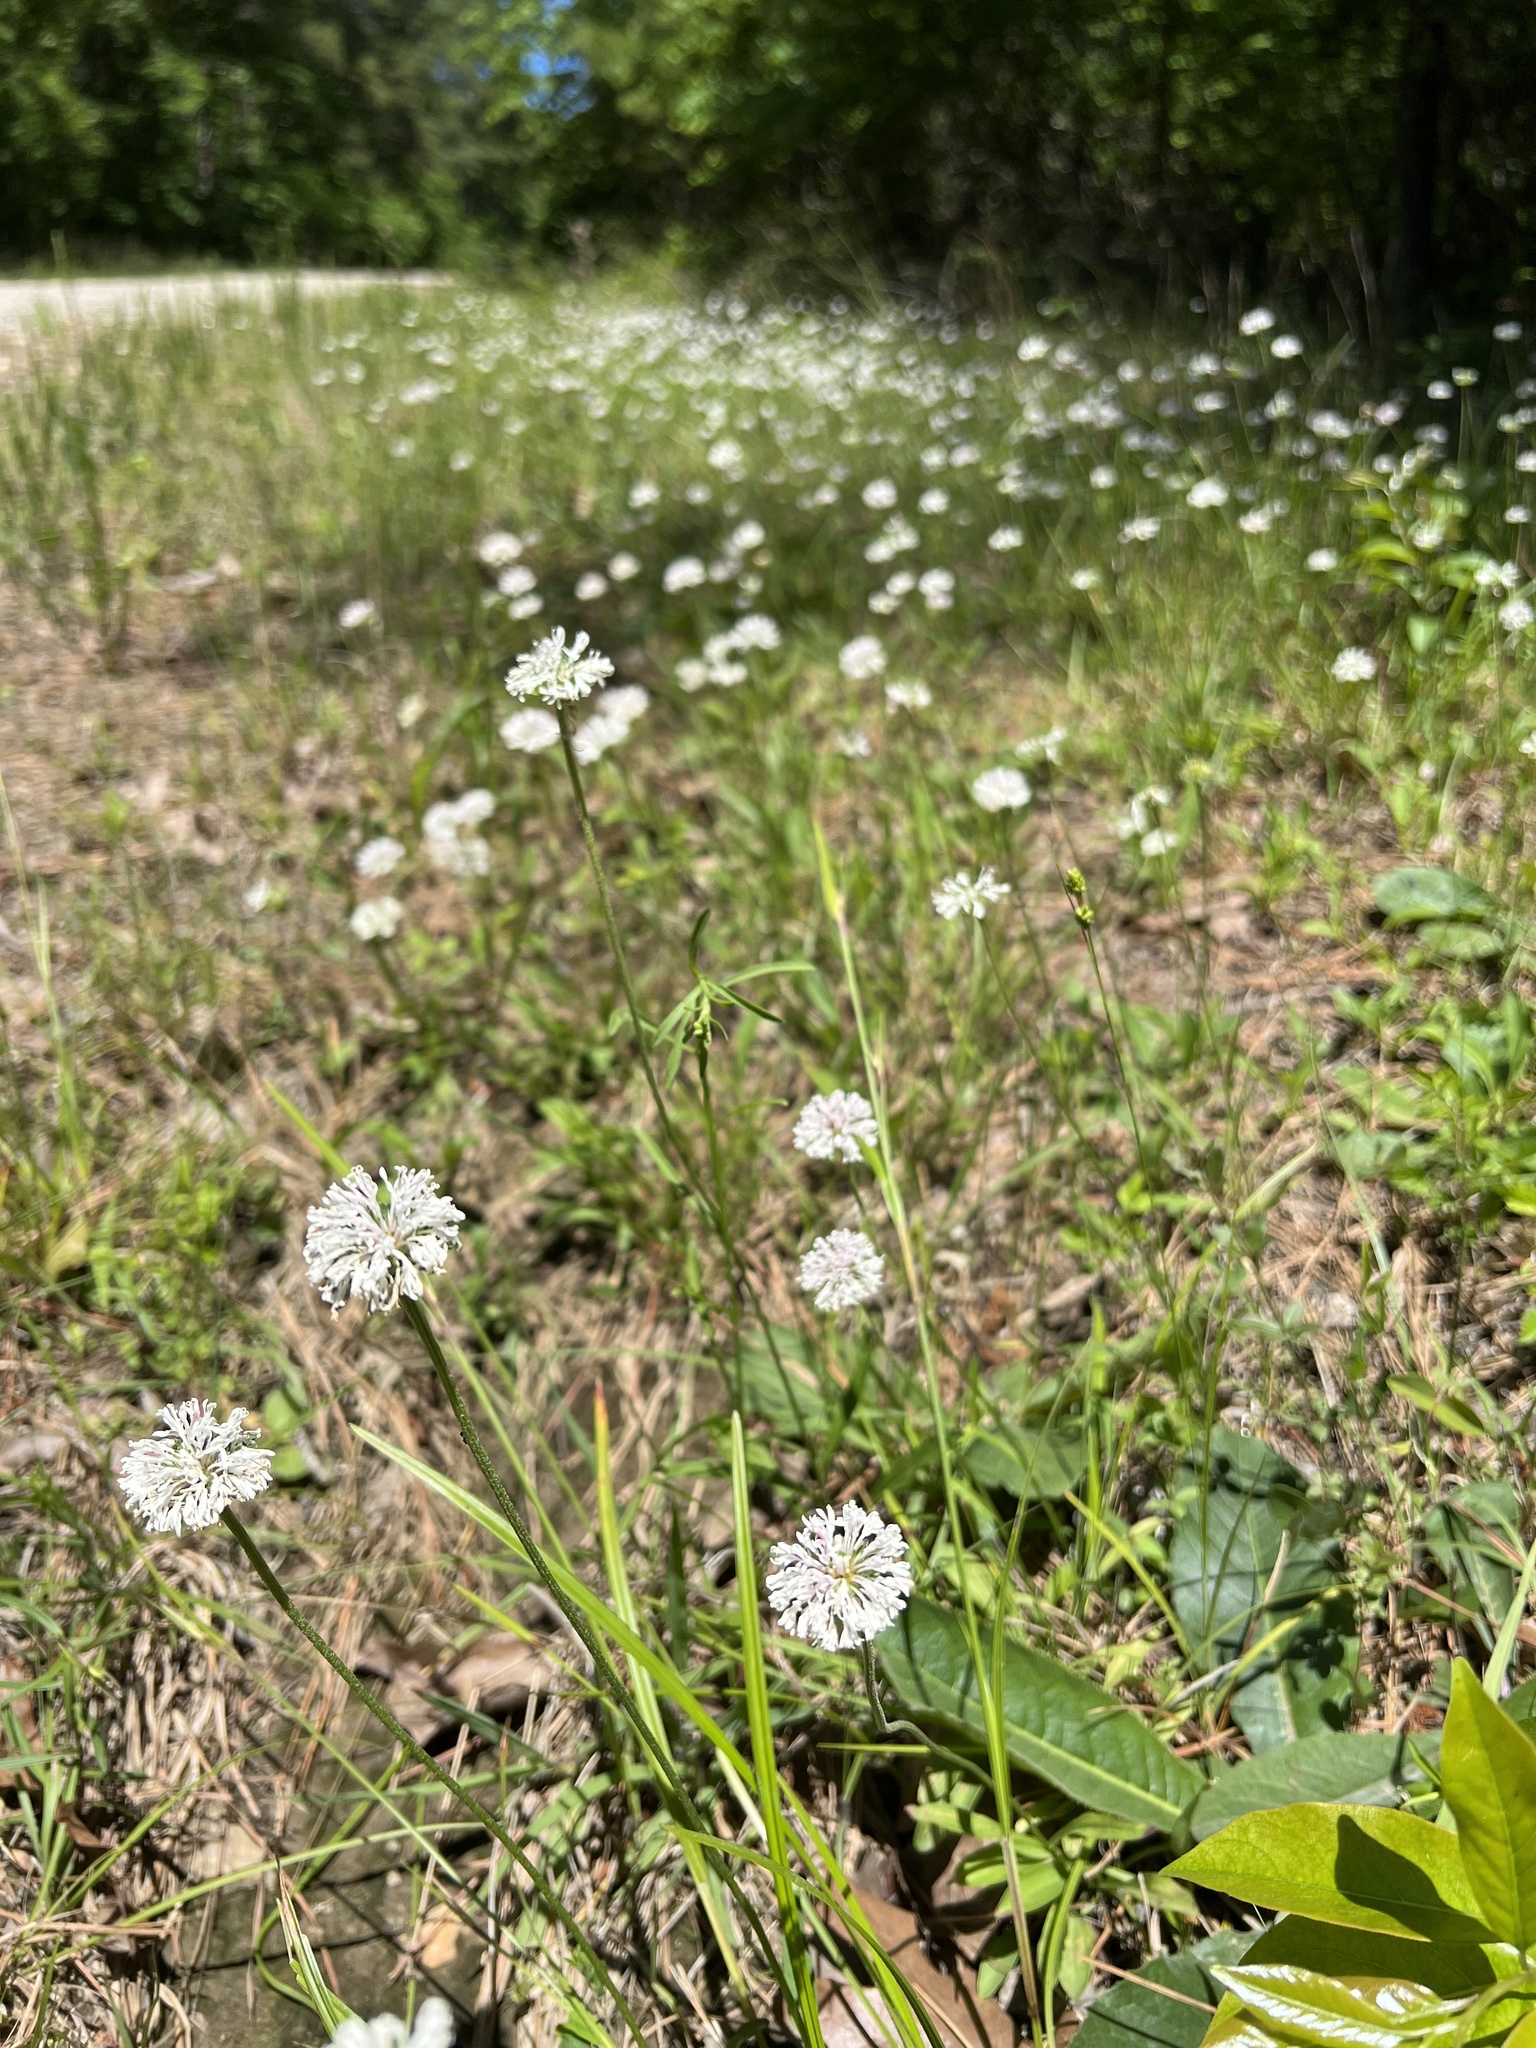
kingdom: Plantae
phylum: Tracheophyta
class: Magnoliopsida
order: Asterales
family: Asteraceae
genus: Marshallia
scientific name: Marshallia obovata
